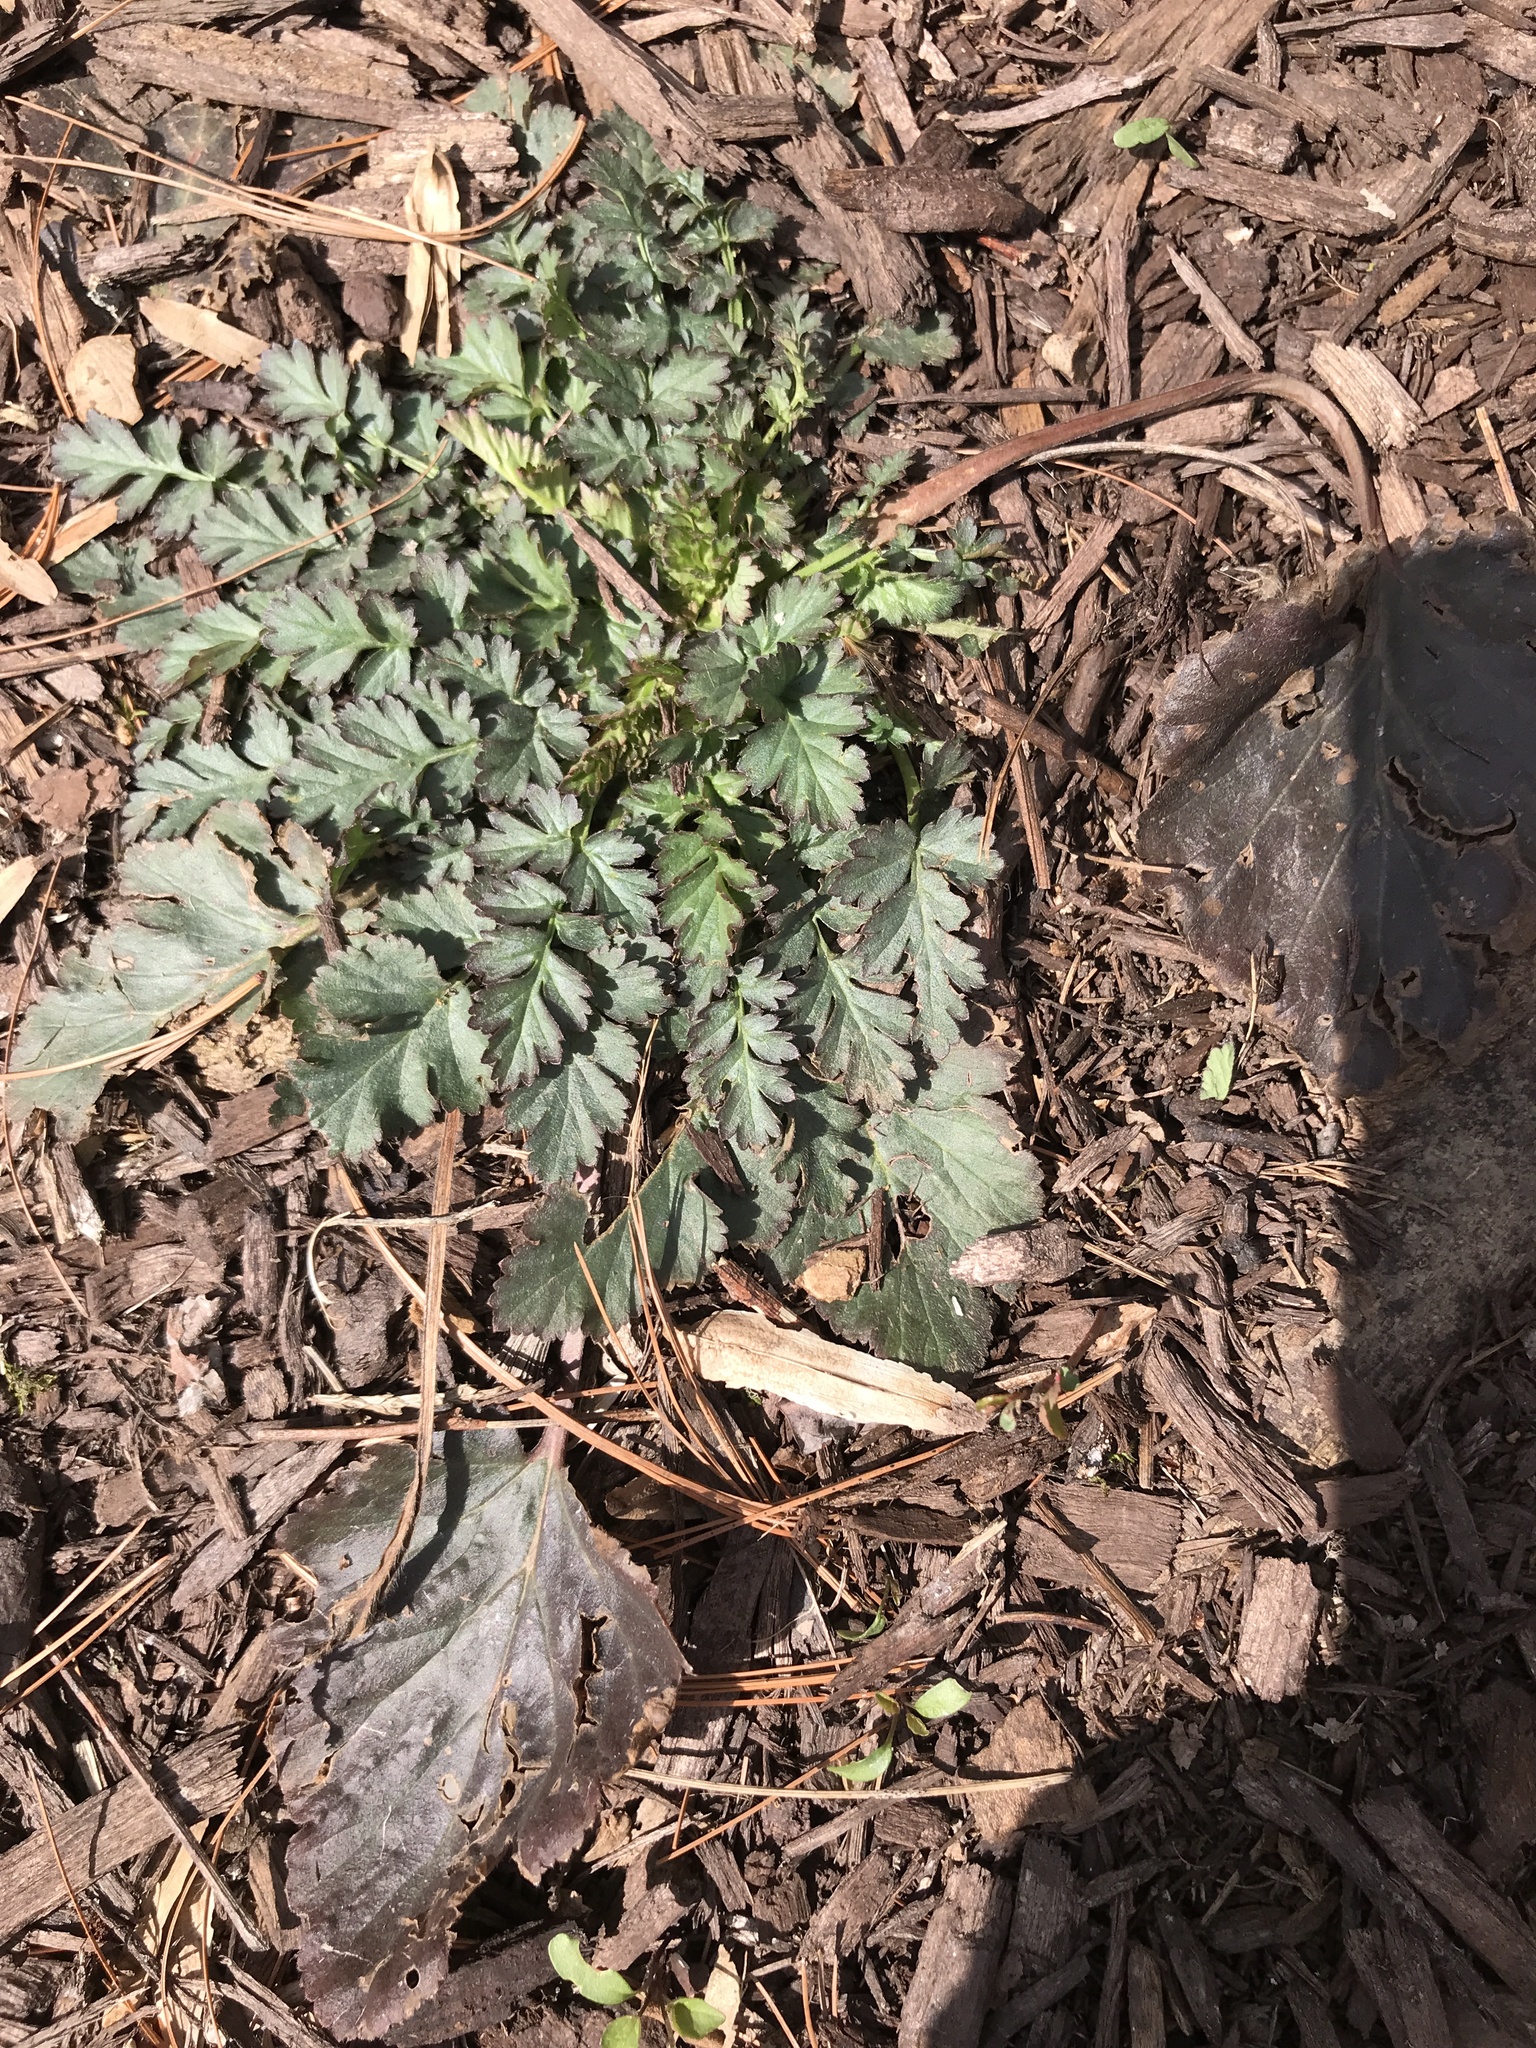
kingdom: Plantae
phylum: Tracheophyta
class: Magnoliopsida
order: Rosales
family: Rosaceae
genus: Geum
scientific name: Geum canadense
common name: White avens
